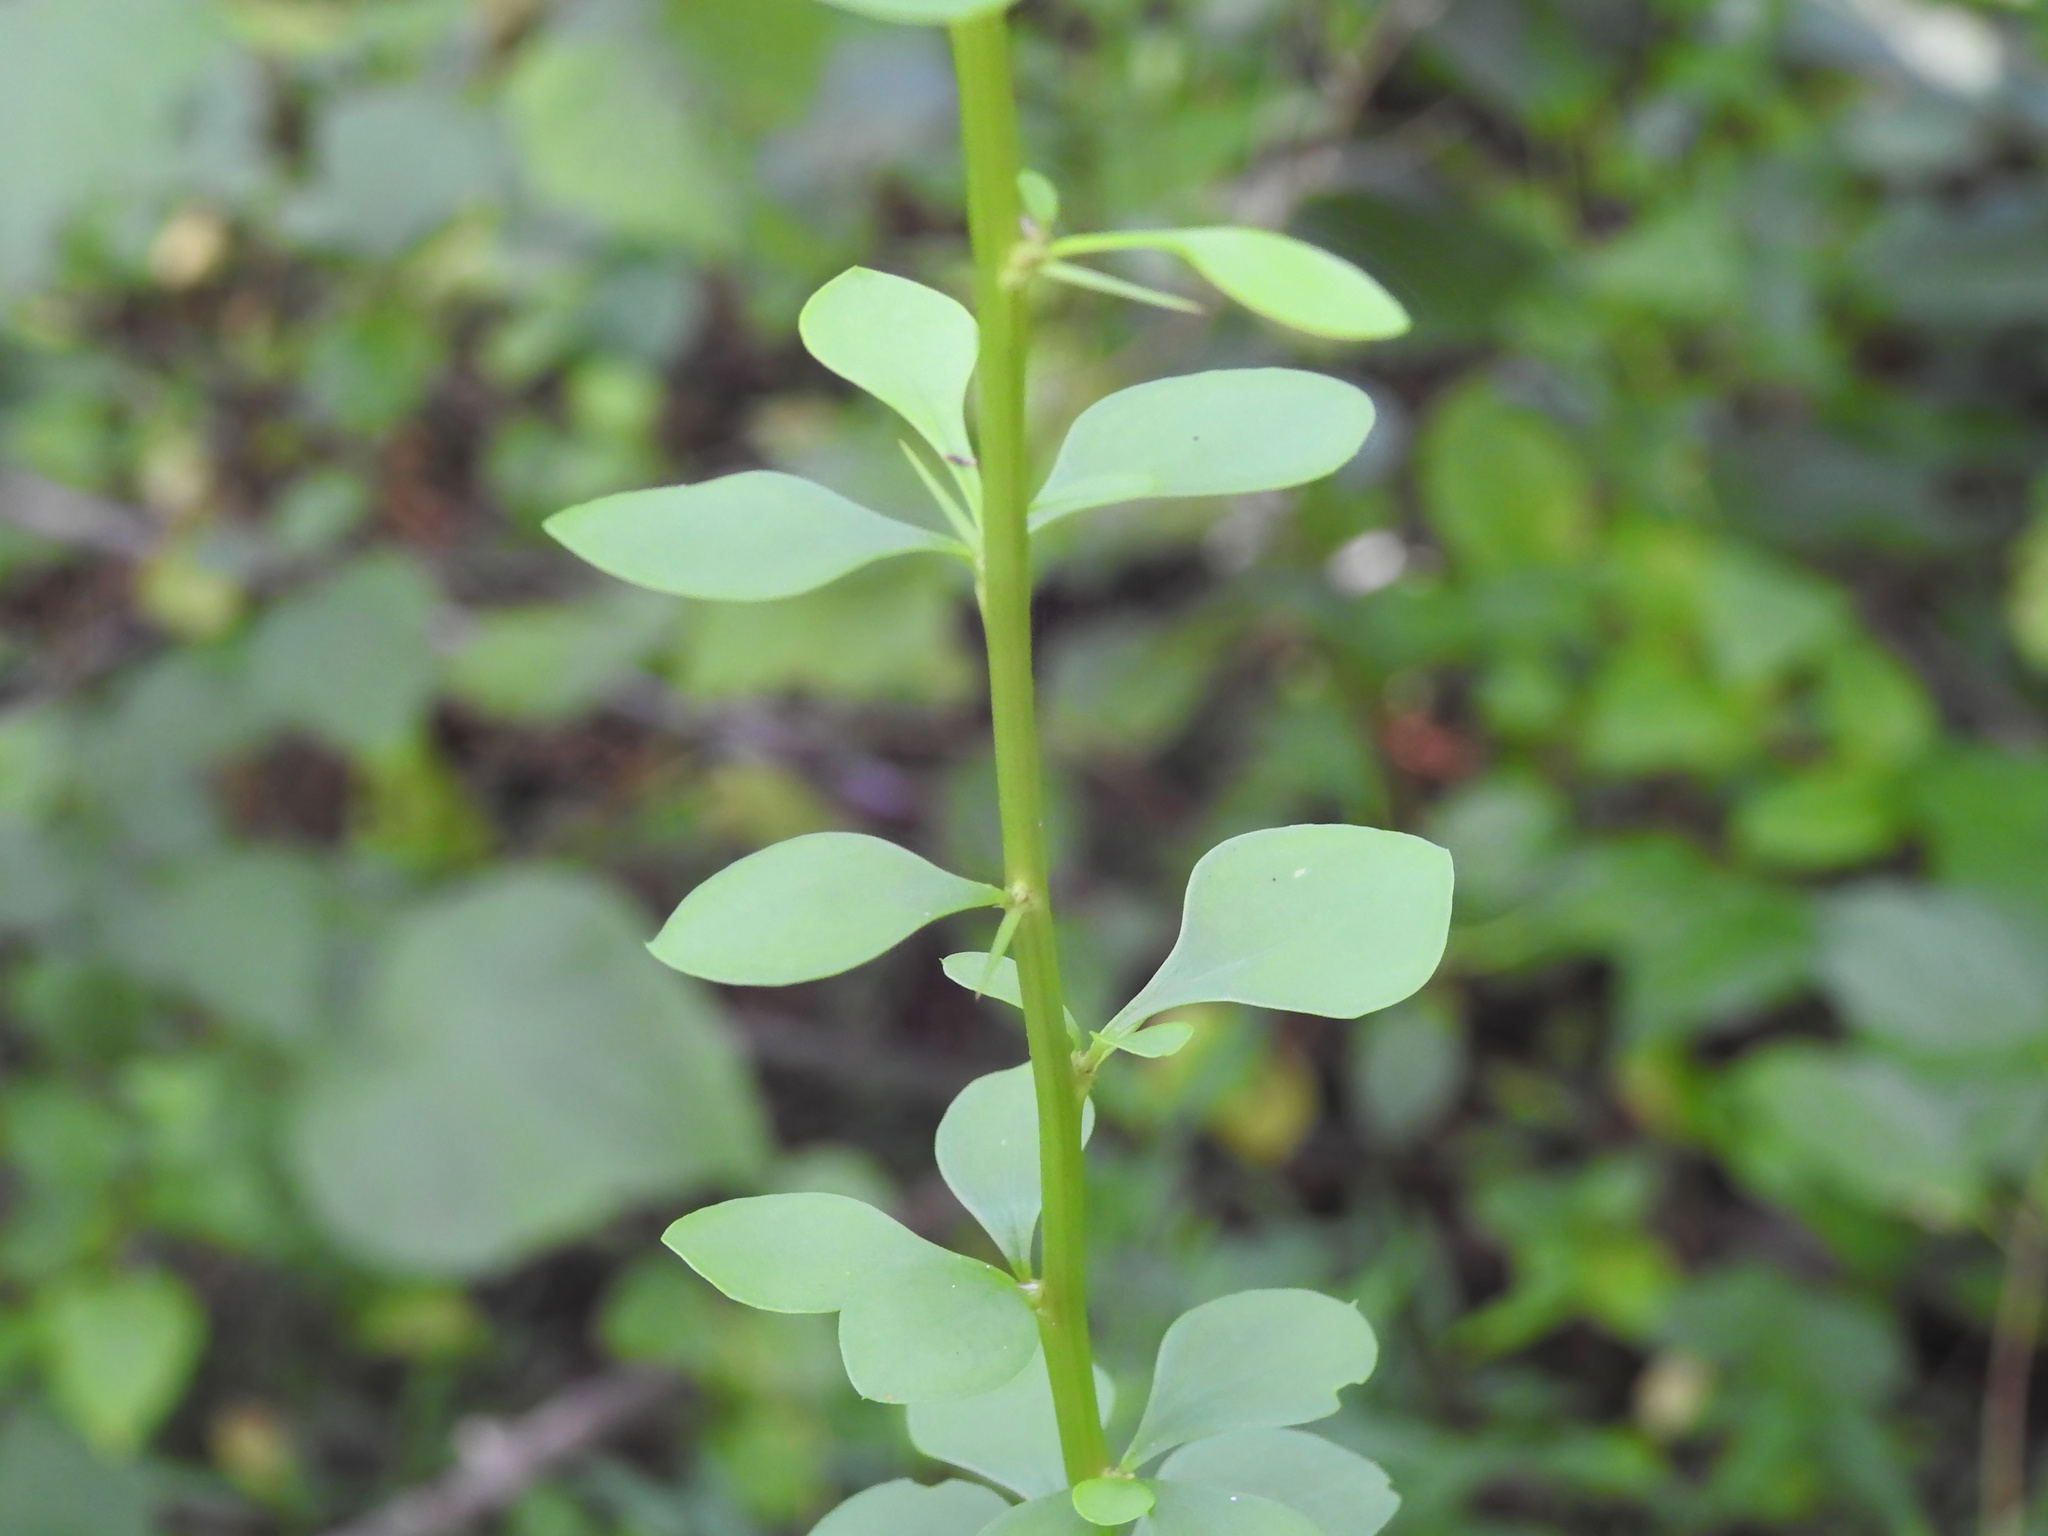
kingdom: Plantae
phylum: Tracheophyta
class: Magnoliopsida
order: Ranunculales
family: Berberidaceae
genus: Berberis
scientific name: Berberis thunbergii
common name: Japanese barberry
